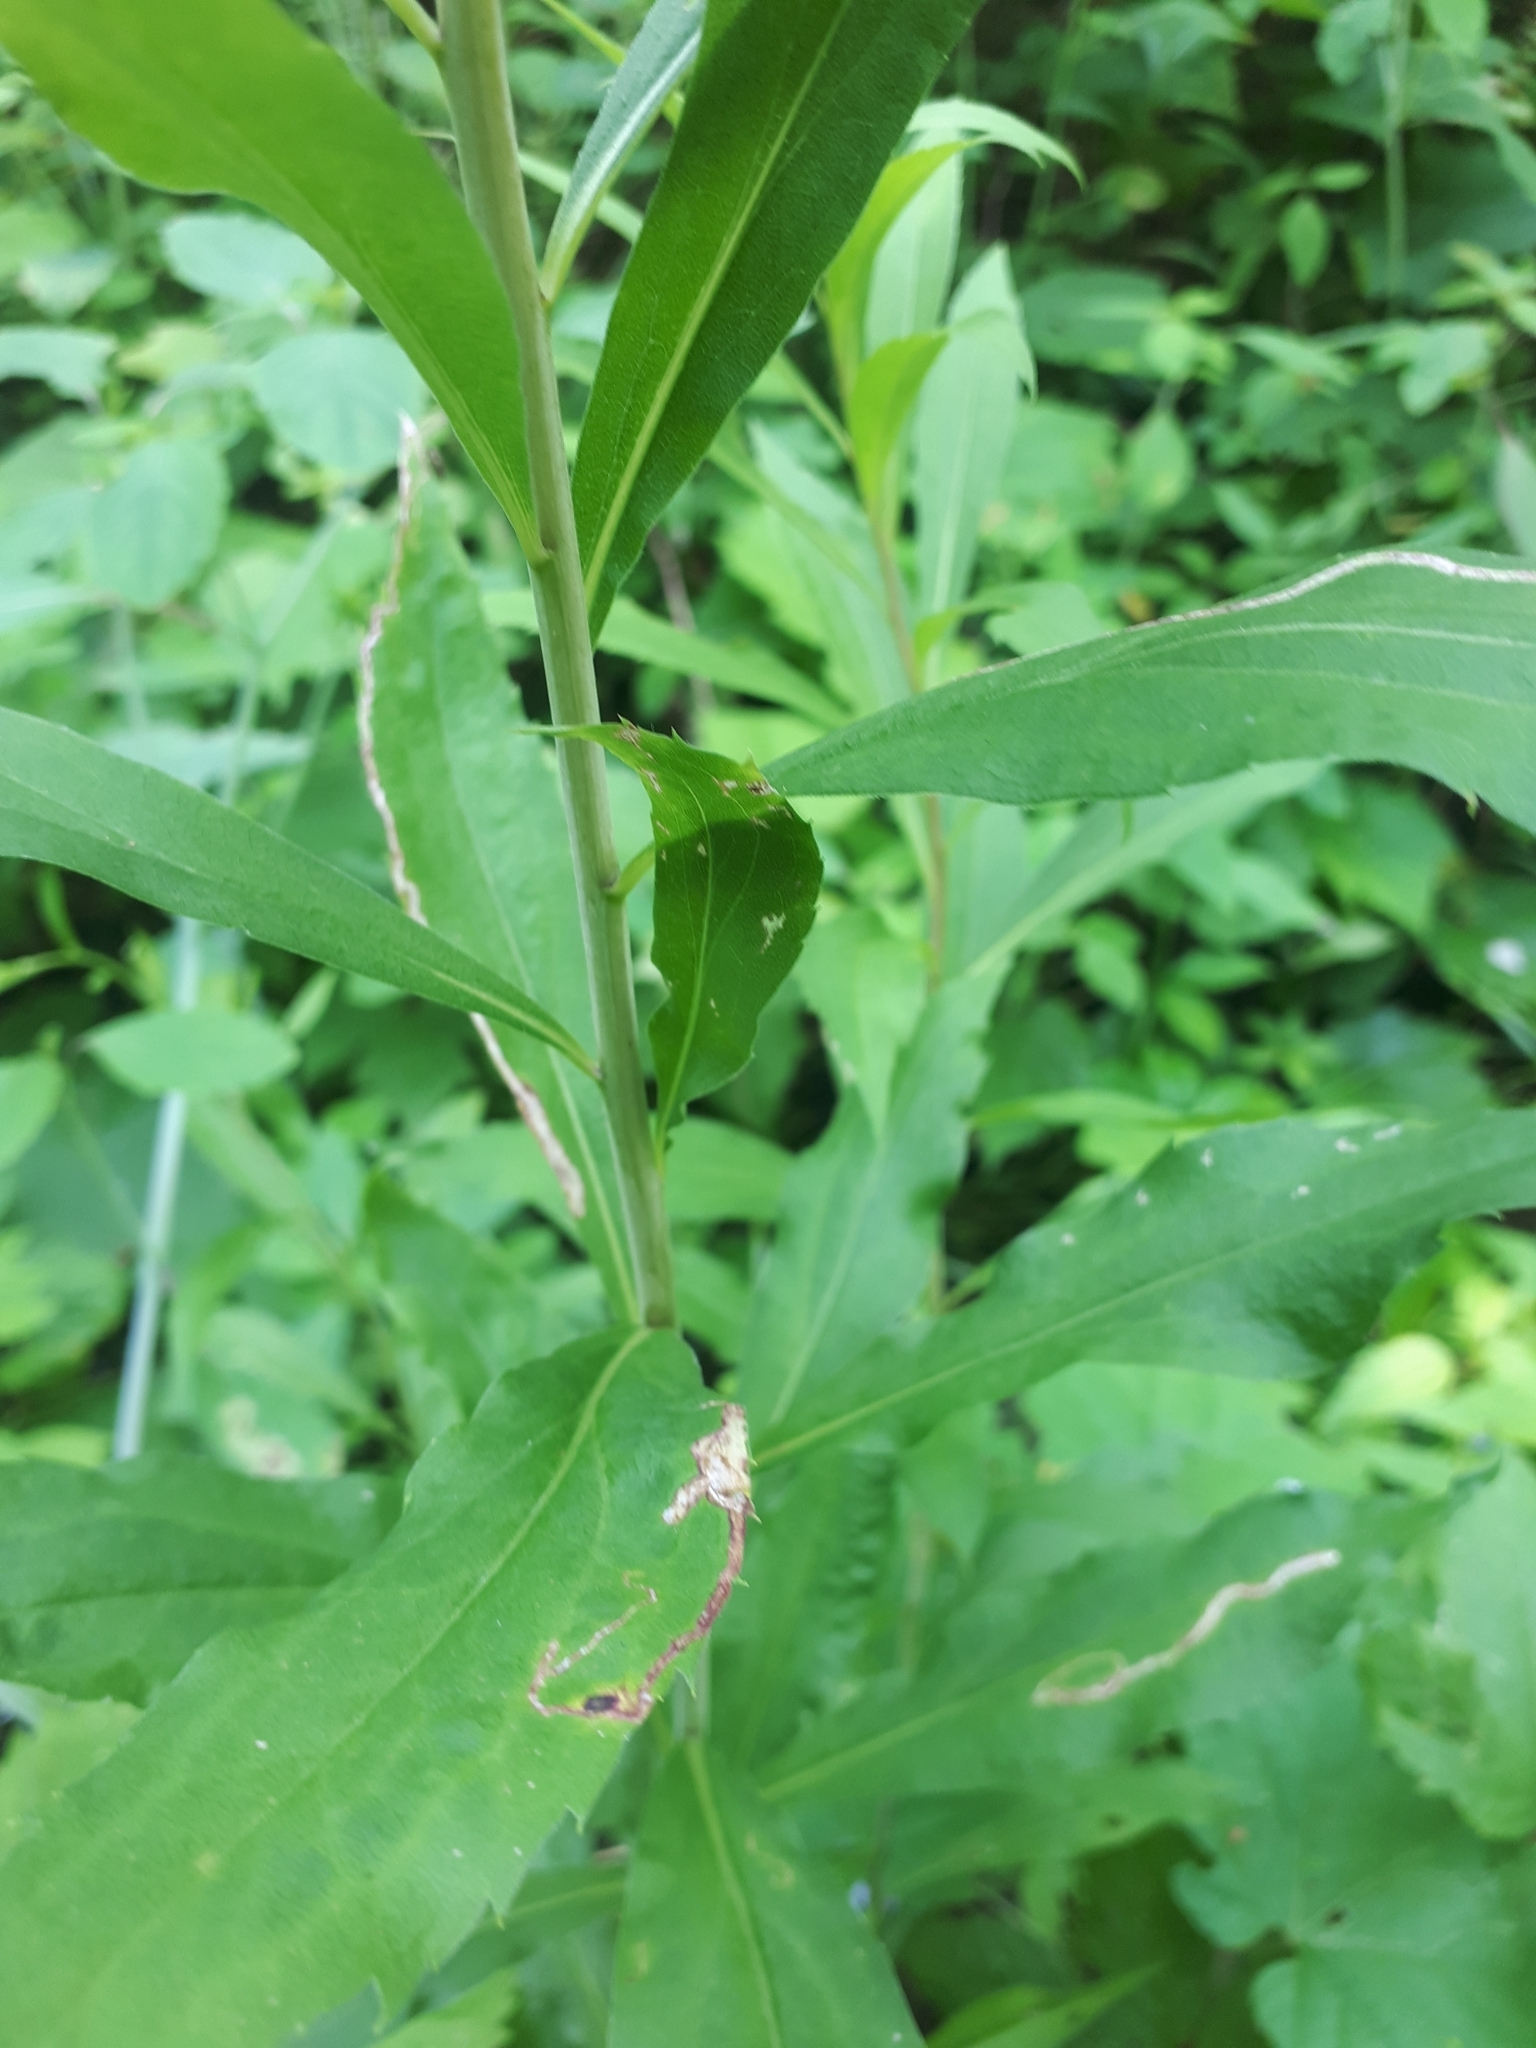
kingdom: Plantae
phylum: Tracheophyta
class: Magnoliopsida
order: Asterales
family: Asteraceae
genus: Solidago
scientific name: Solidago gigantea
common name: Giant goldenrod
